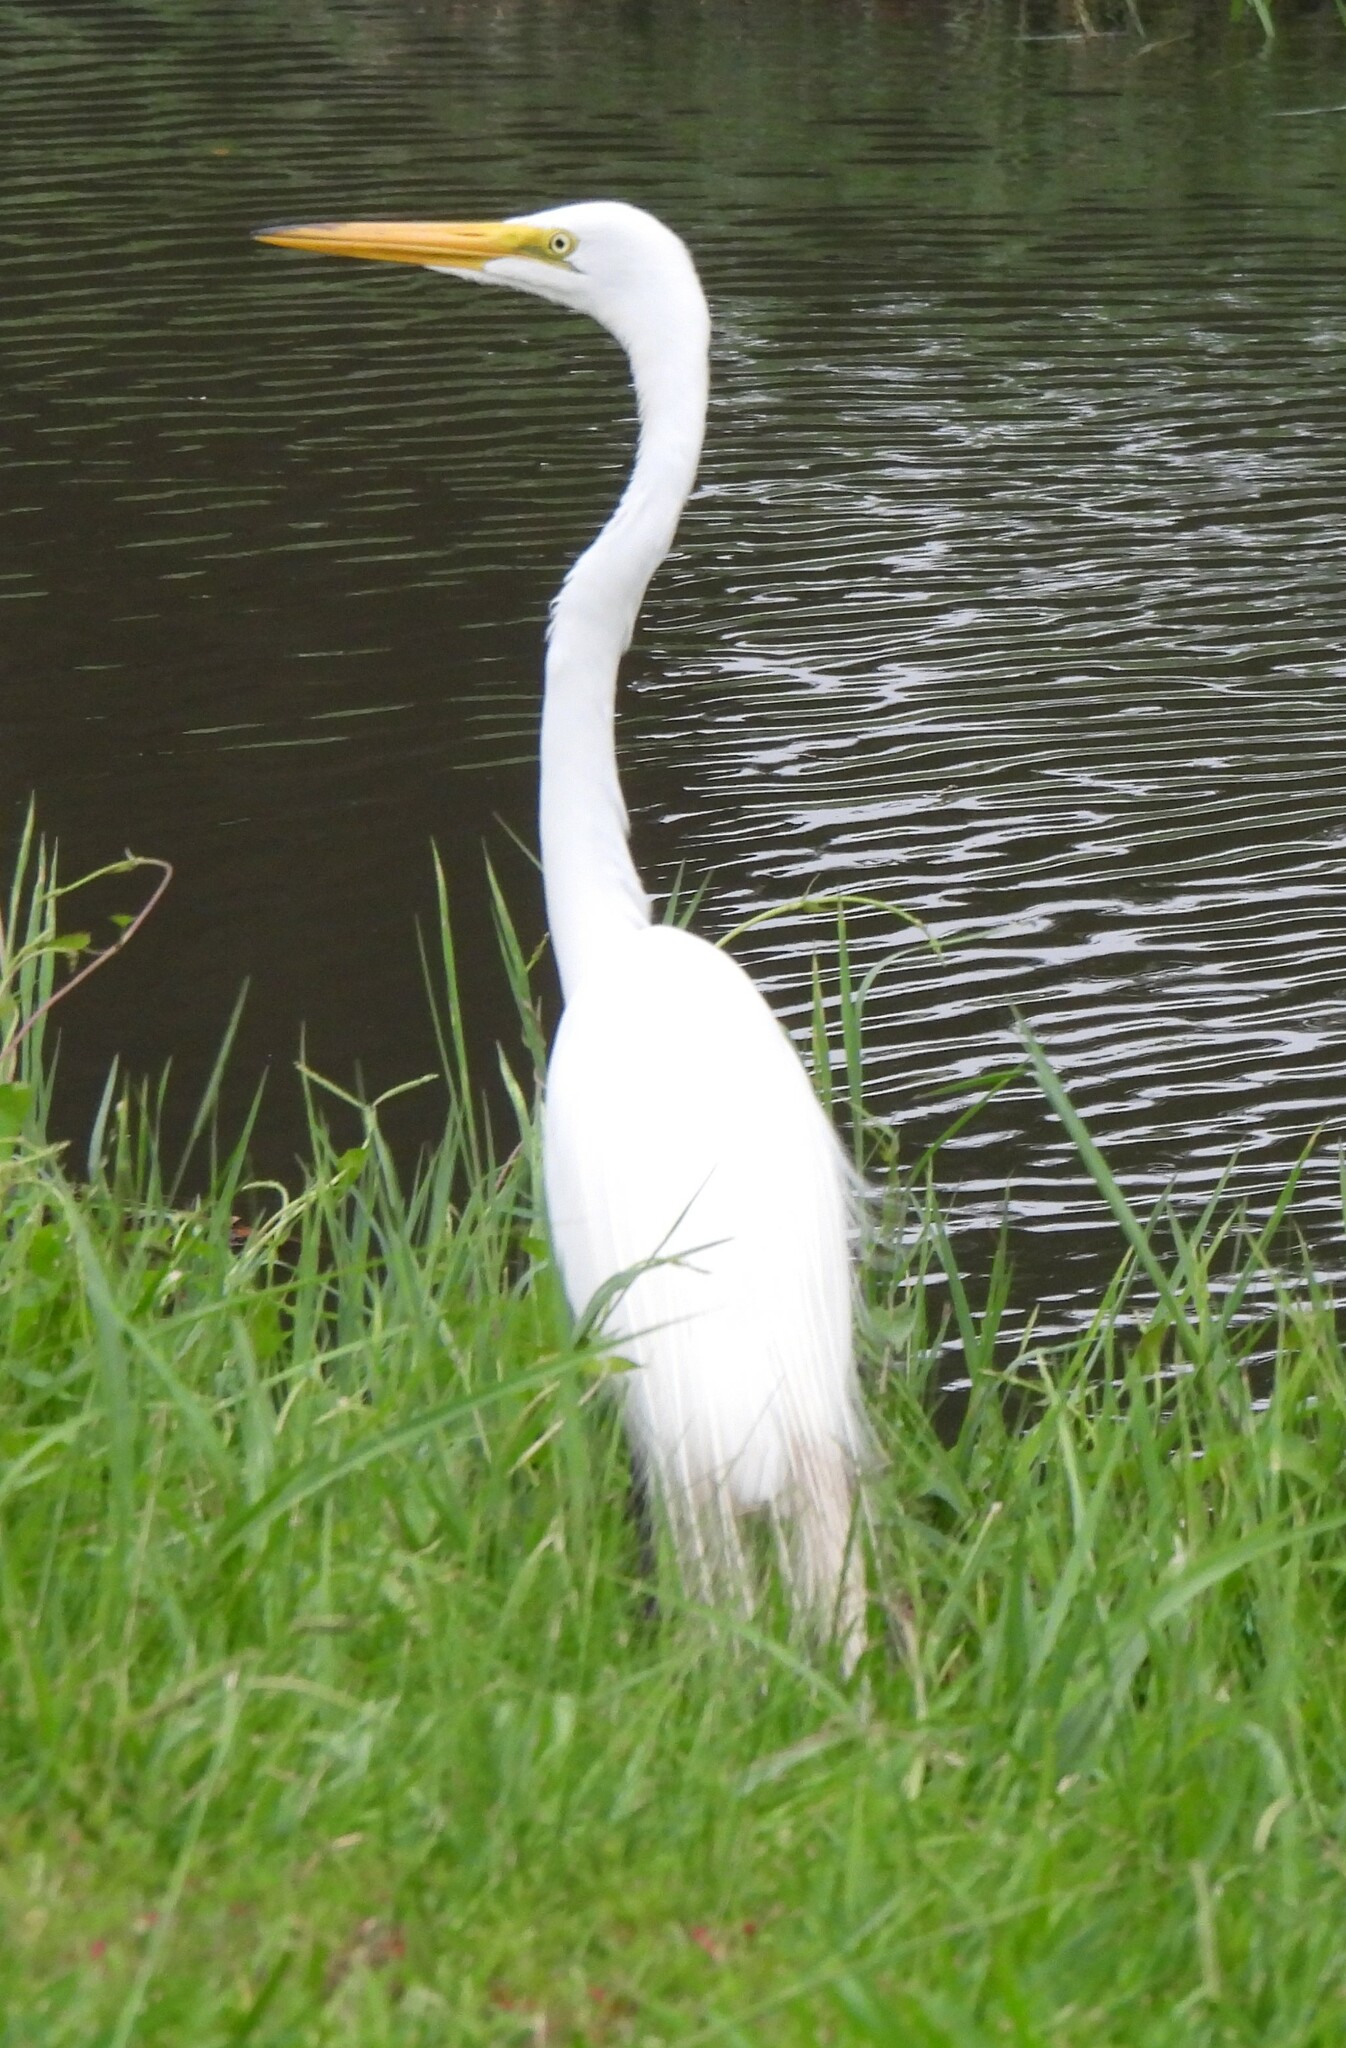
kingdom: Animalia
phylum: Chordata
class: Aves
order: Pelecaniformes
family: Ardeidae
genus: Ardea
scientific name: Ardea alba
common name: Great egret
